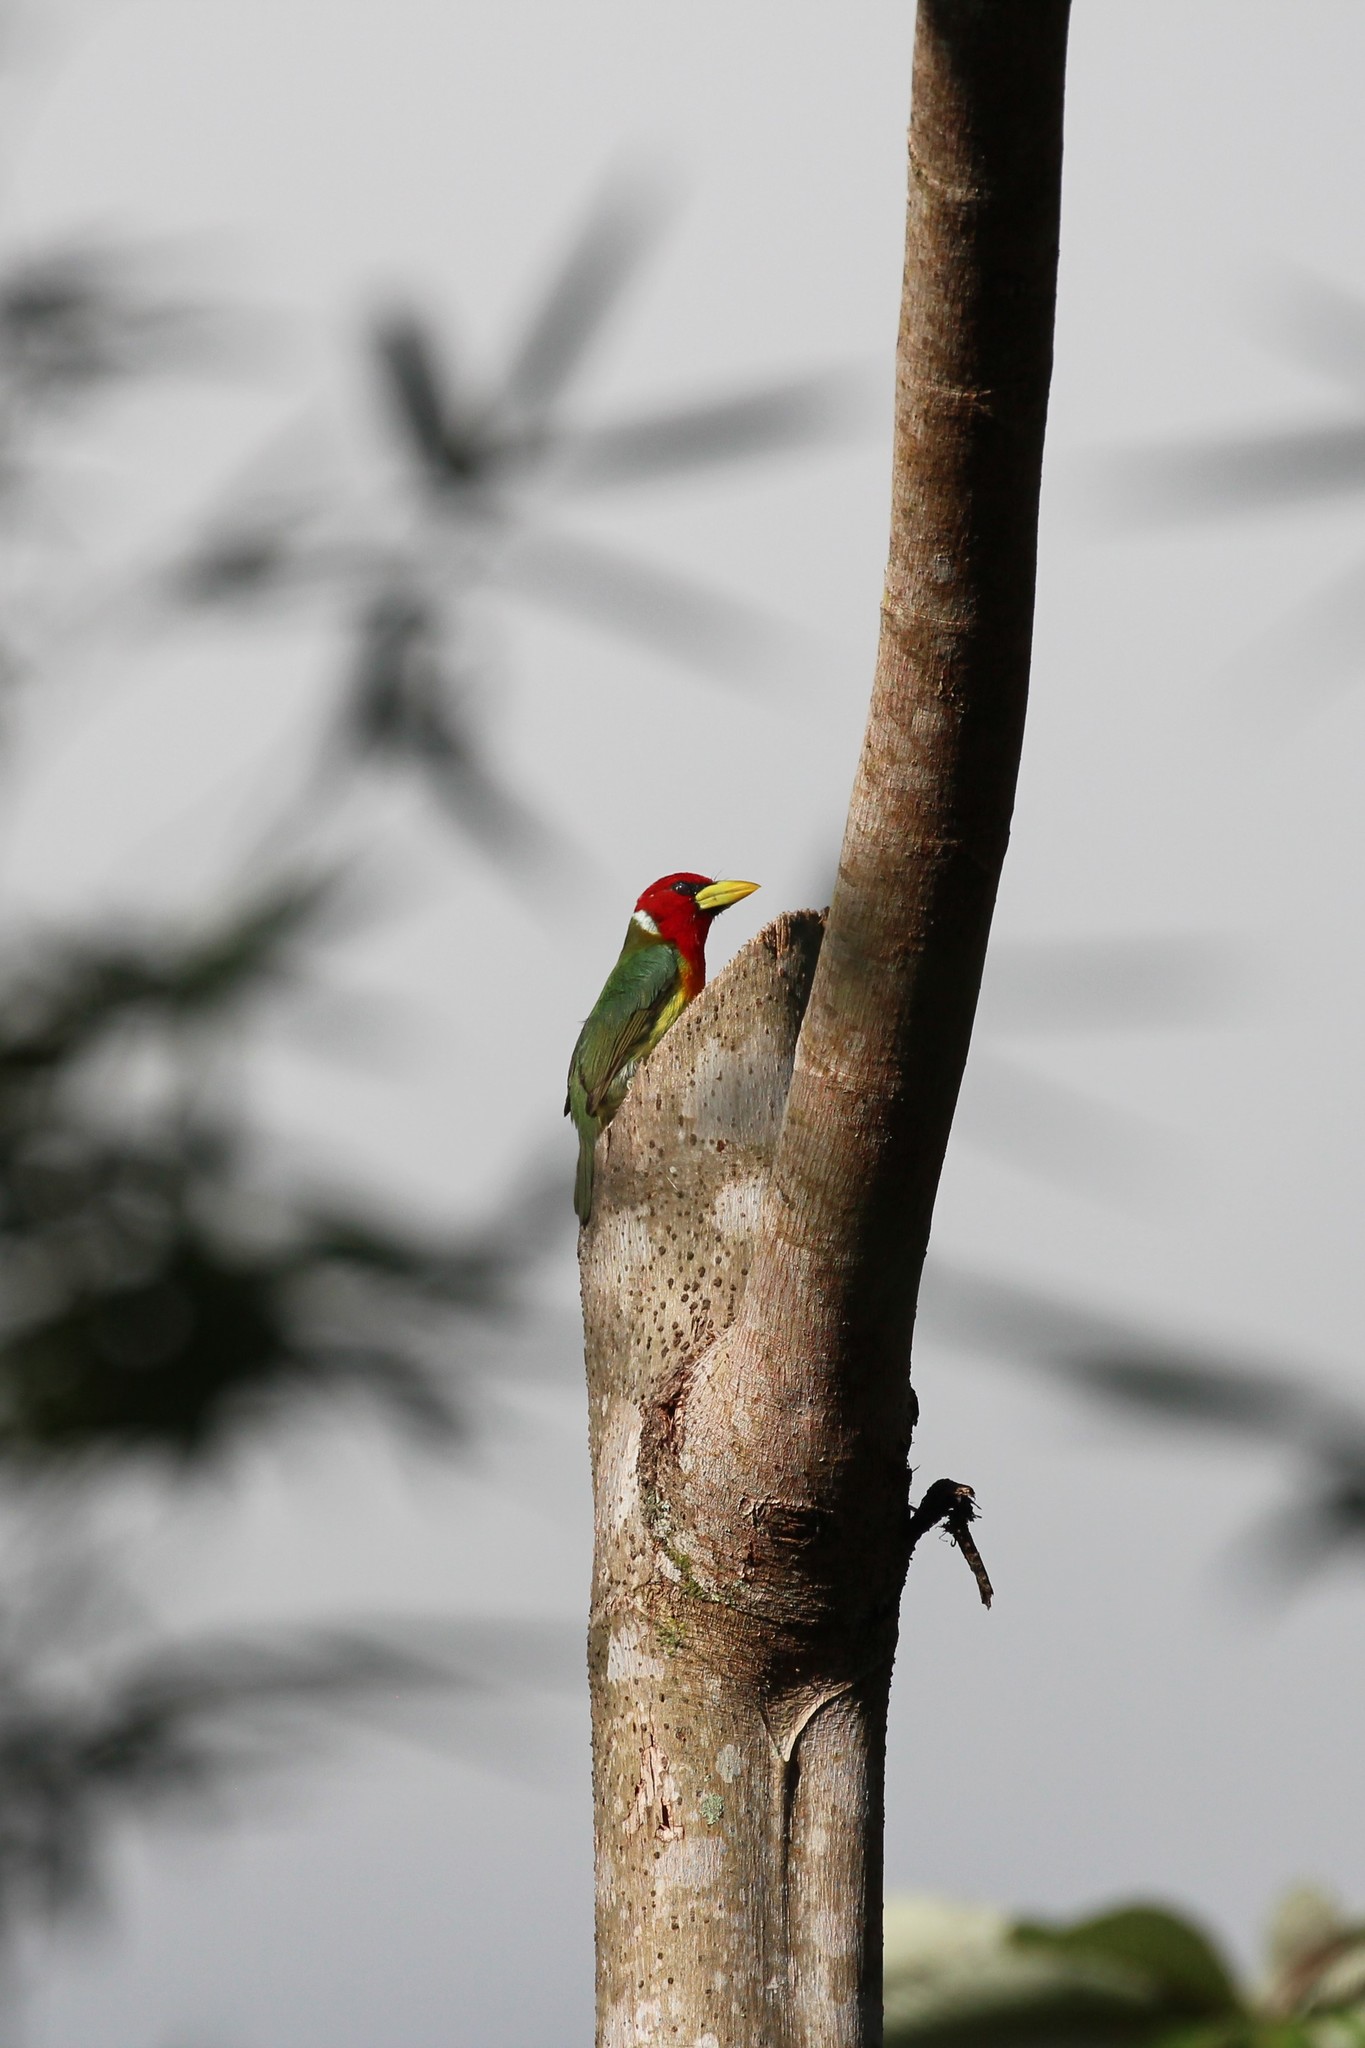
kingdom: Animalia
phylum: Chordata
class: Aves
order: Piciformes
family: Capitonidae
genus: Eubucco
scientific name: Eubucco bourcierii
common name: Red-headed barbet
